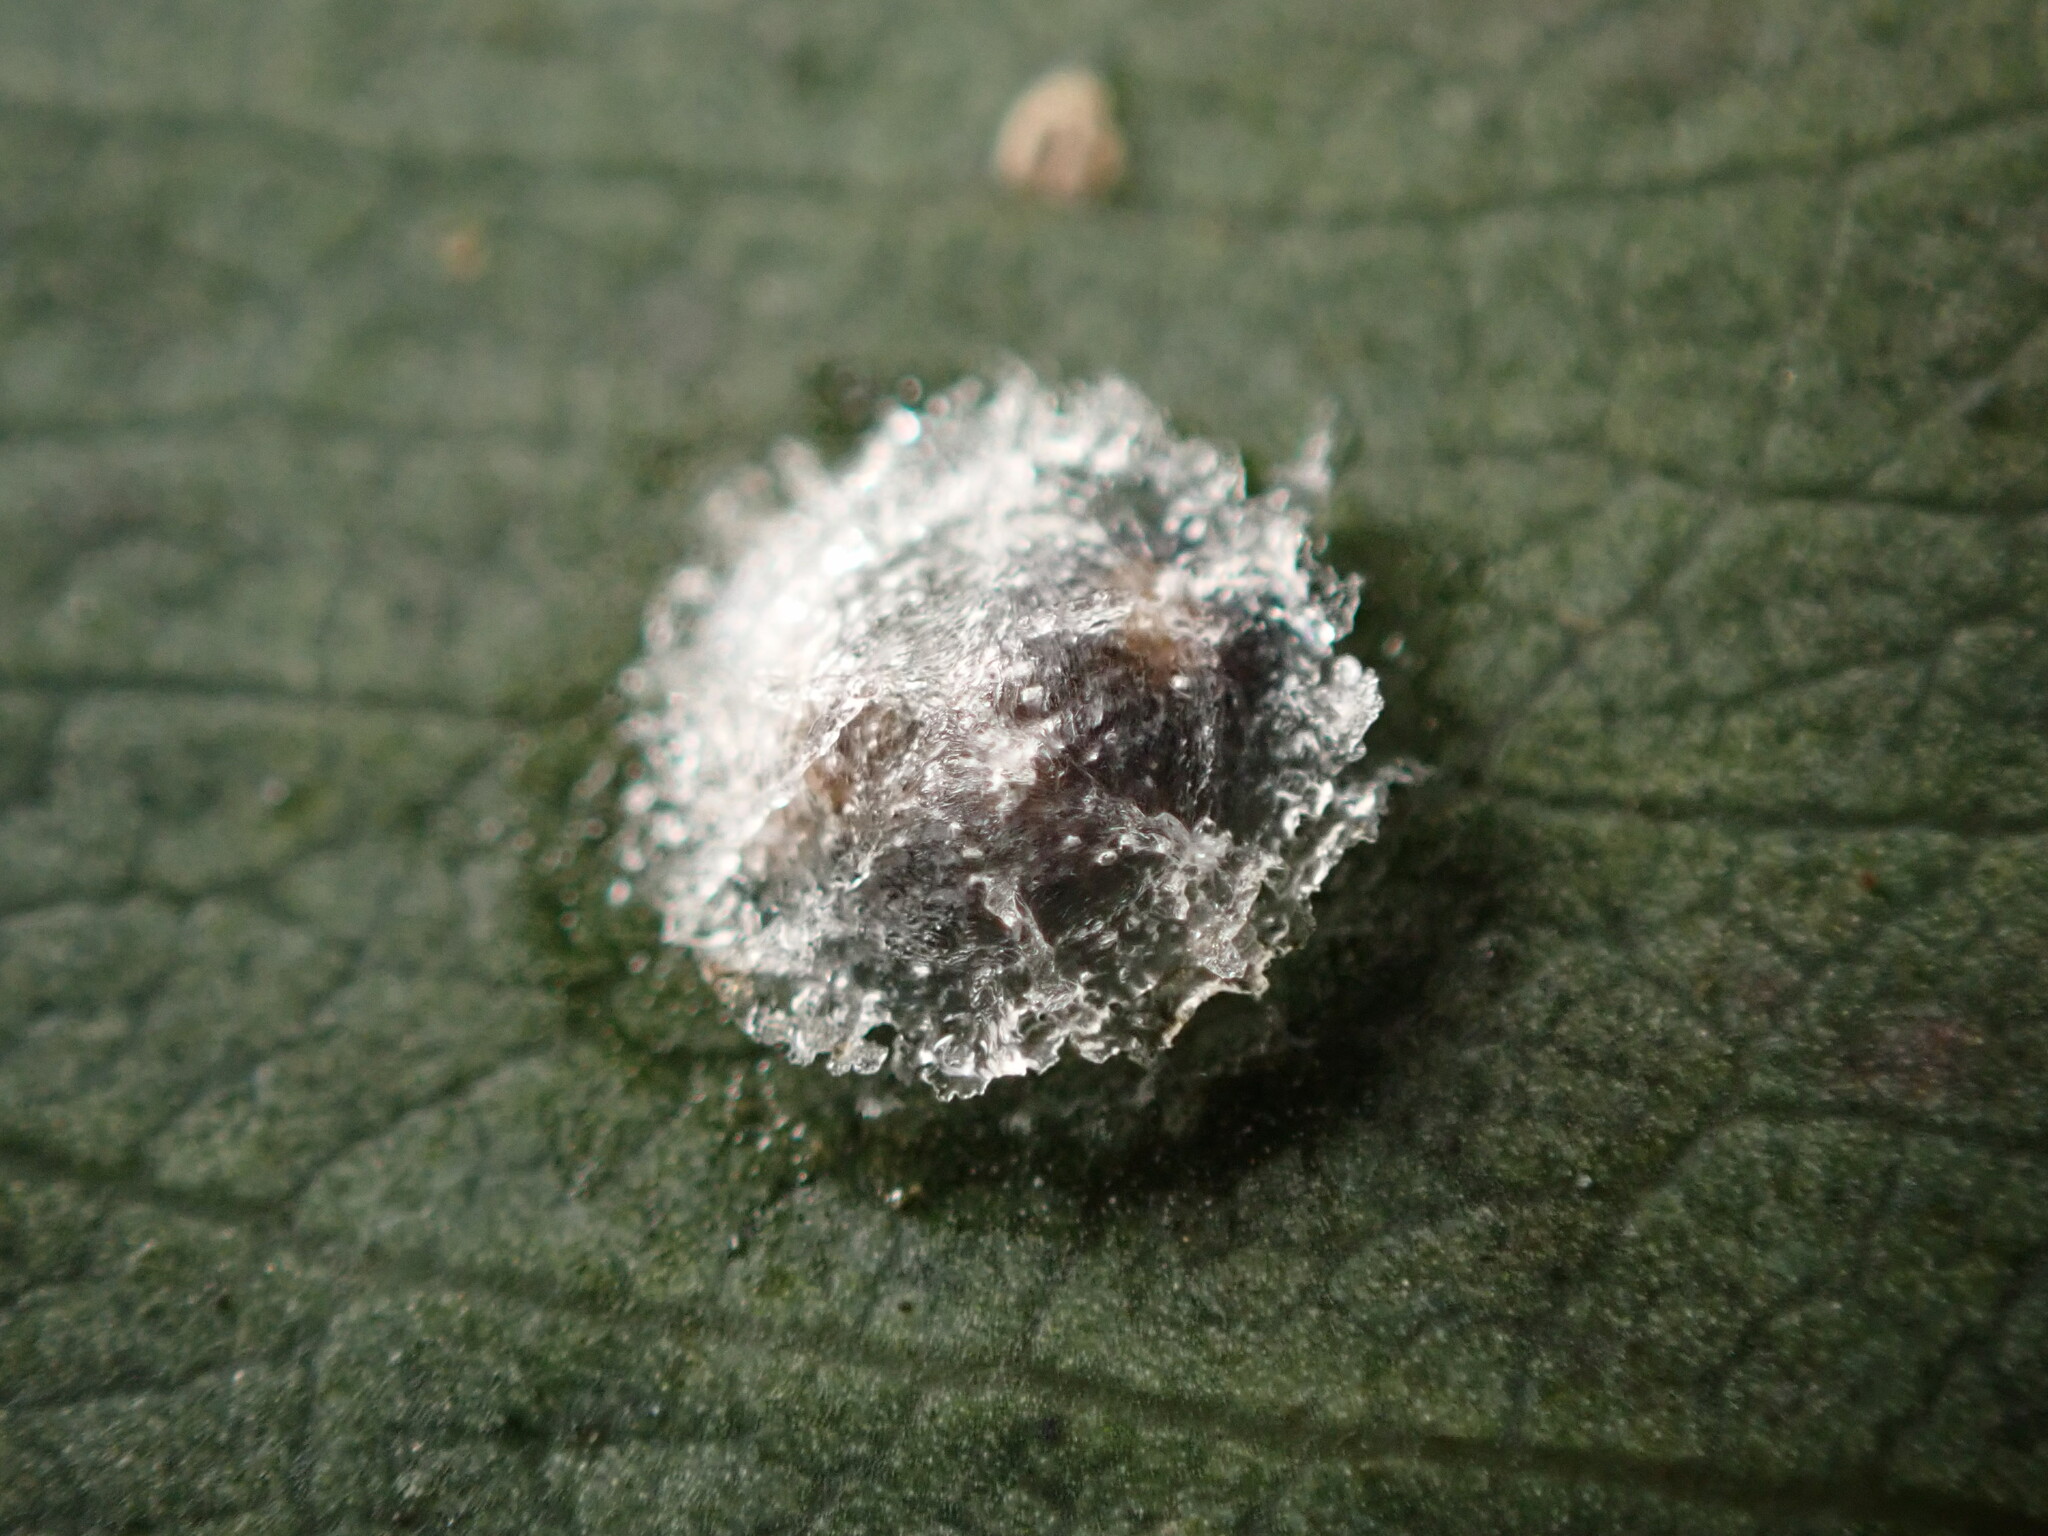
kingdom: Animalia
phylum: Arthropoda
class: Insecta
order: Hemiptera
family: Aphalaridae
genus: Glycaspis
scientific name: Glycaspis brimblecombei
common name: Red gum lerp psyllid
